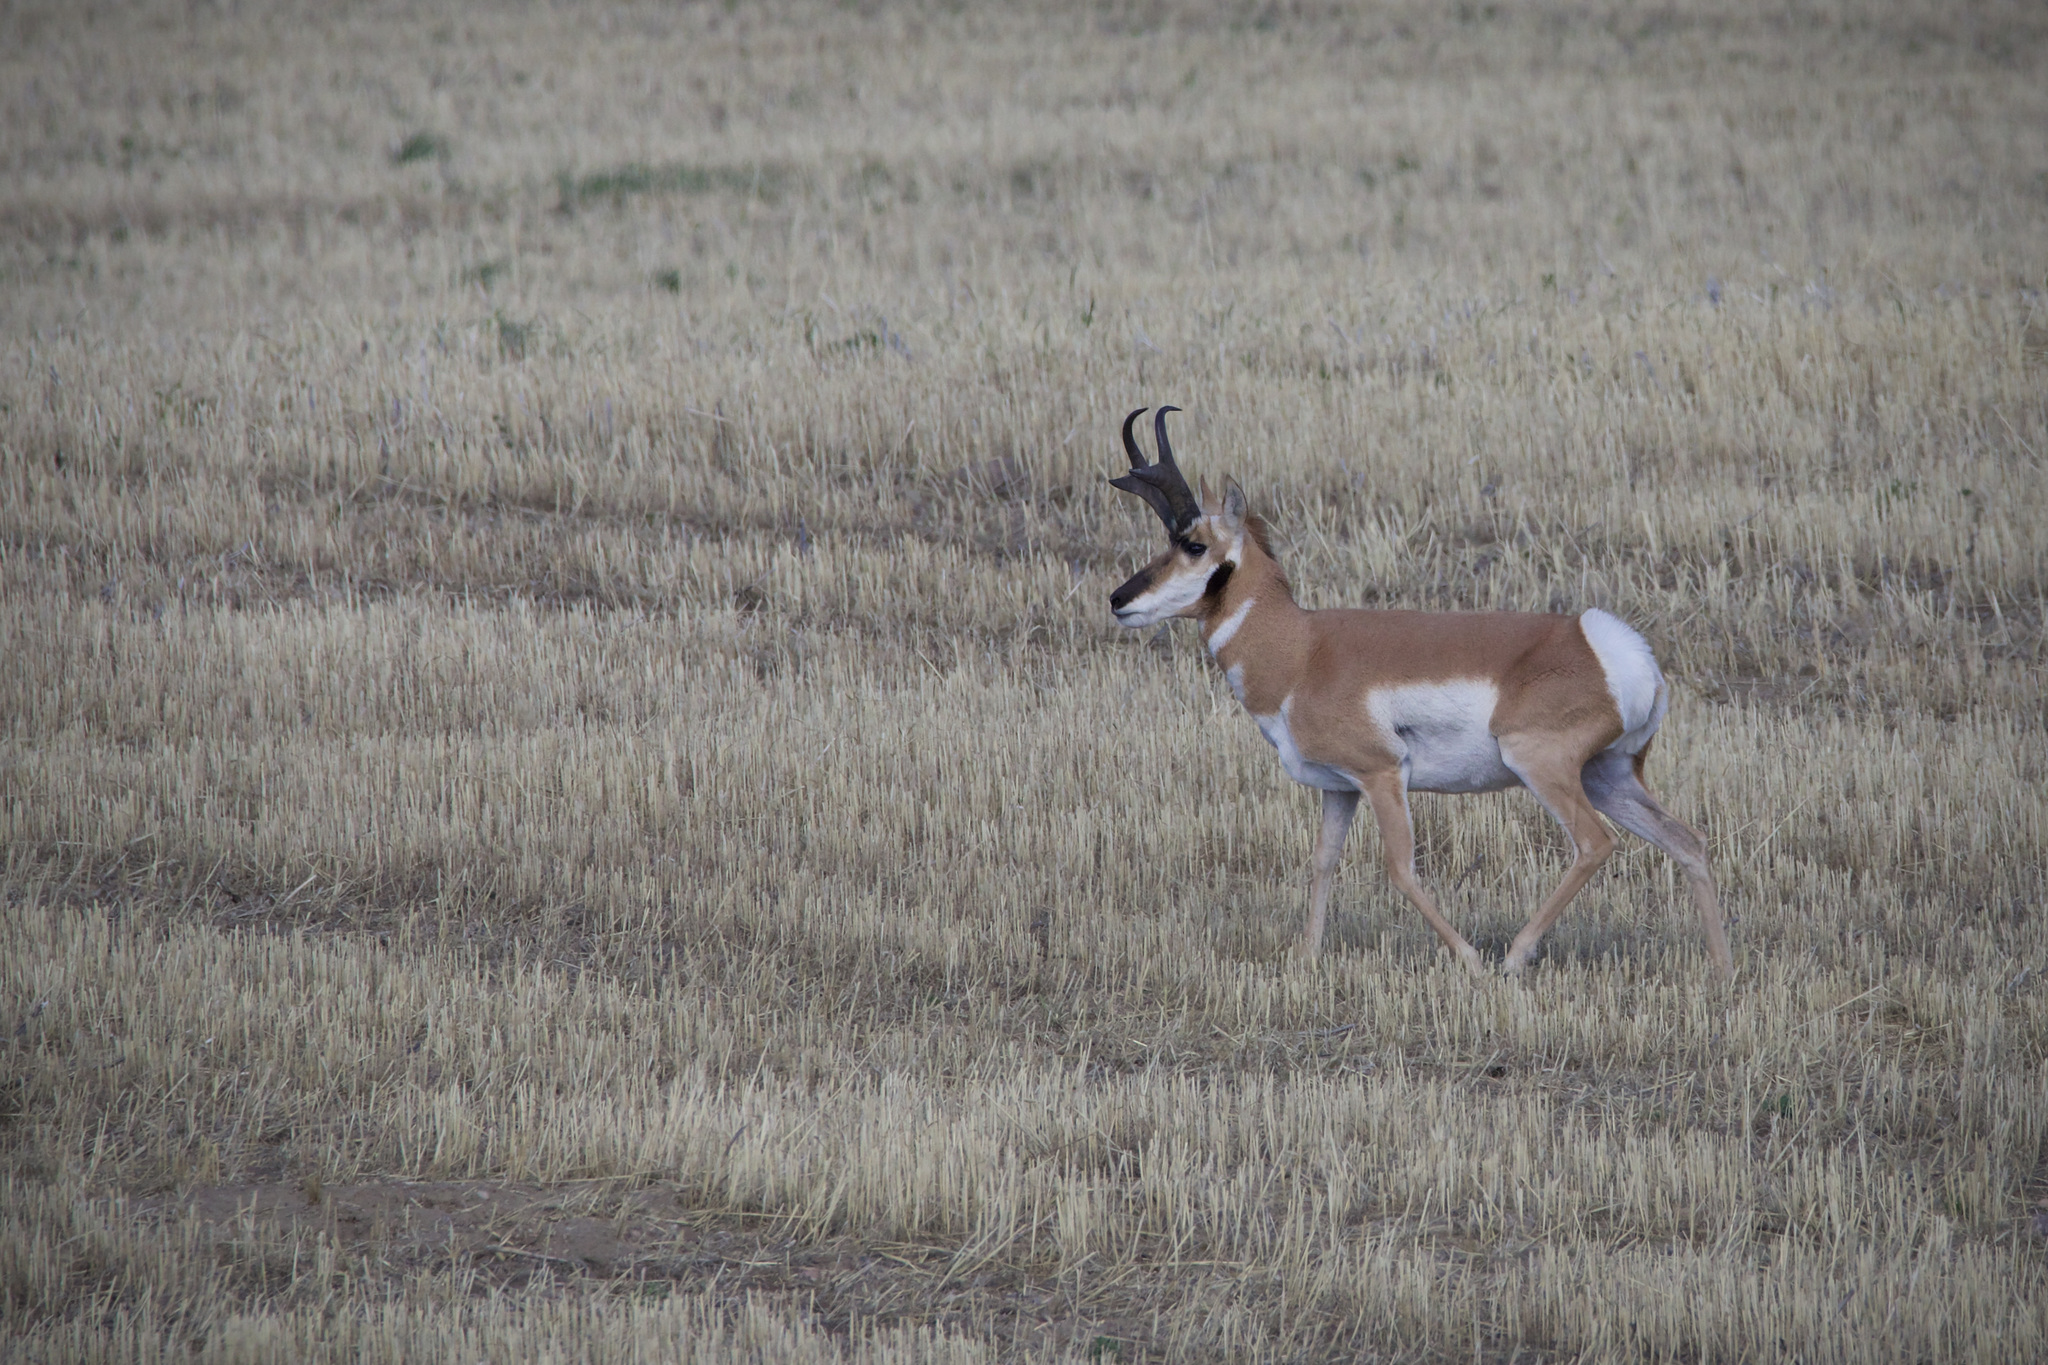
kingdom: Animalia
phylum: Chordata
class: Mammalia
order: Artiodactyla
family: Antilocapridae
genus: Antilocapra
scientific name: Antilocapra americana
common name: Pronghorn
